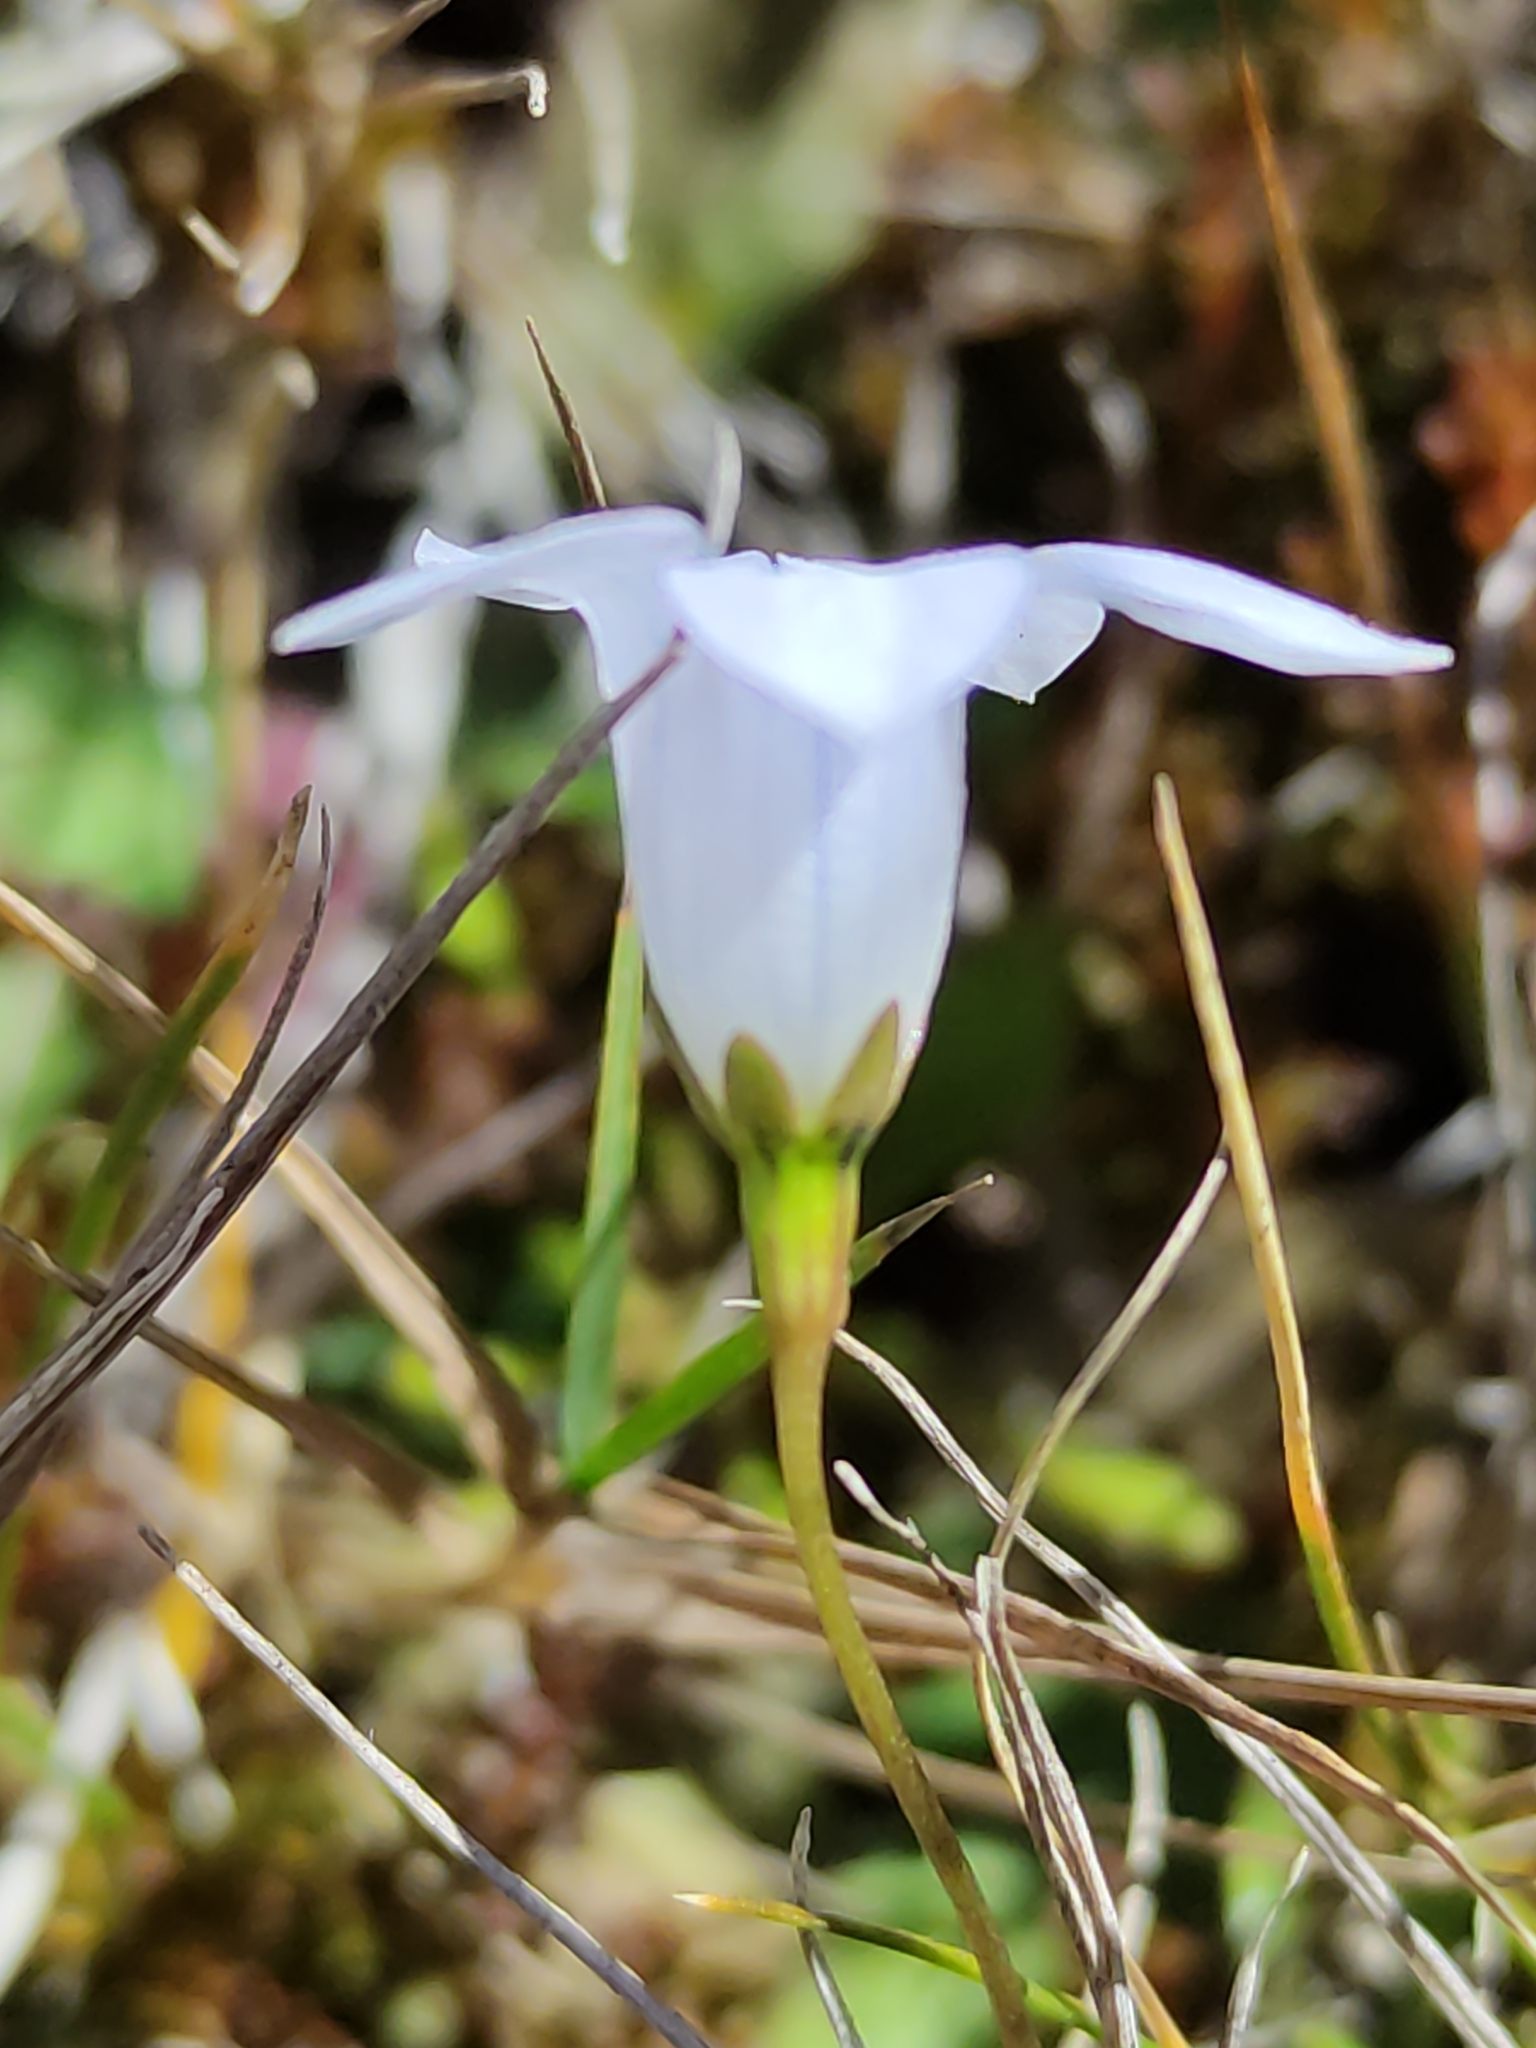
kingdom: Plantae
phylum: Tracheophyta
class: Magnoliopsida
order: Asterales
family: Campanulaceae
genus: Wahlenbergia
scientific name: Wahlenbergia albomarginata
